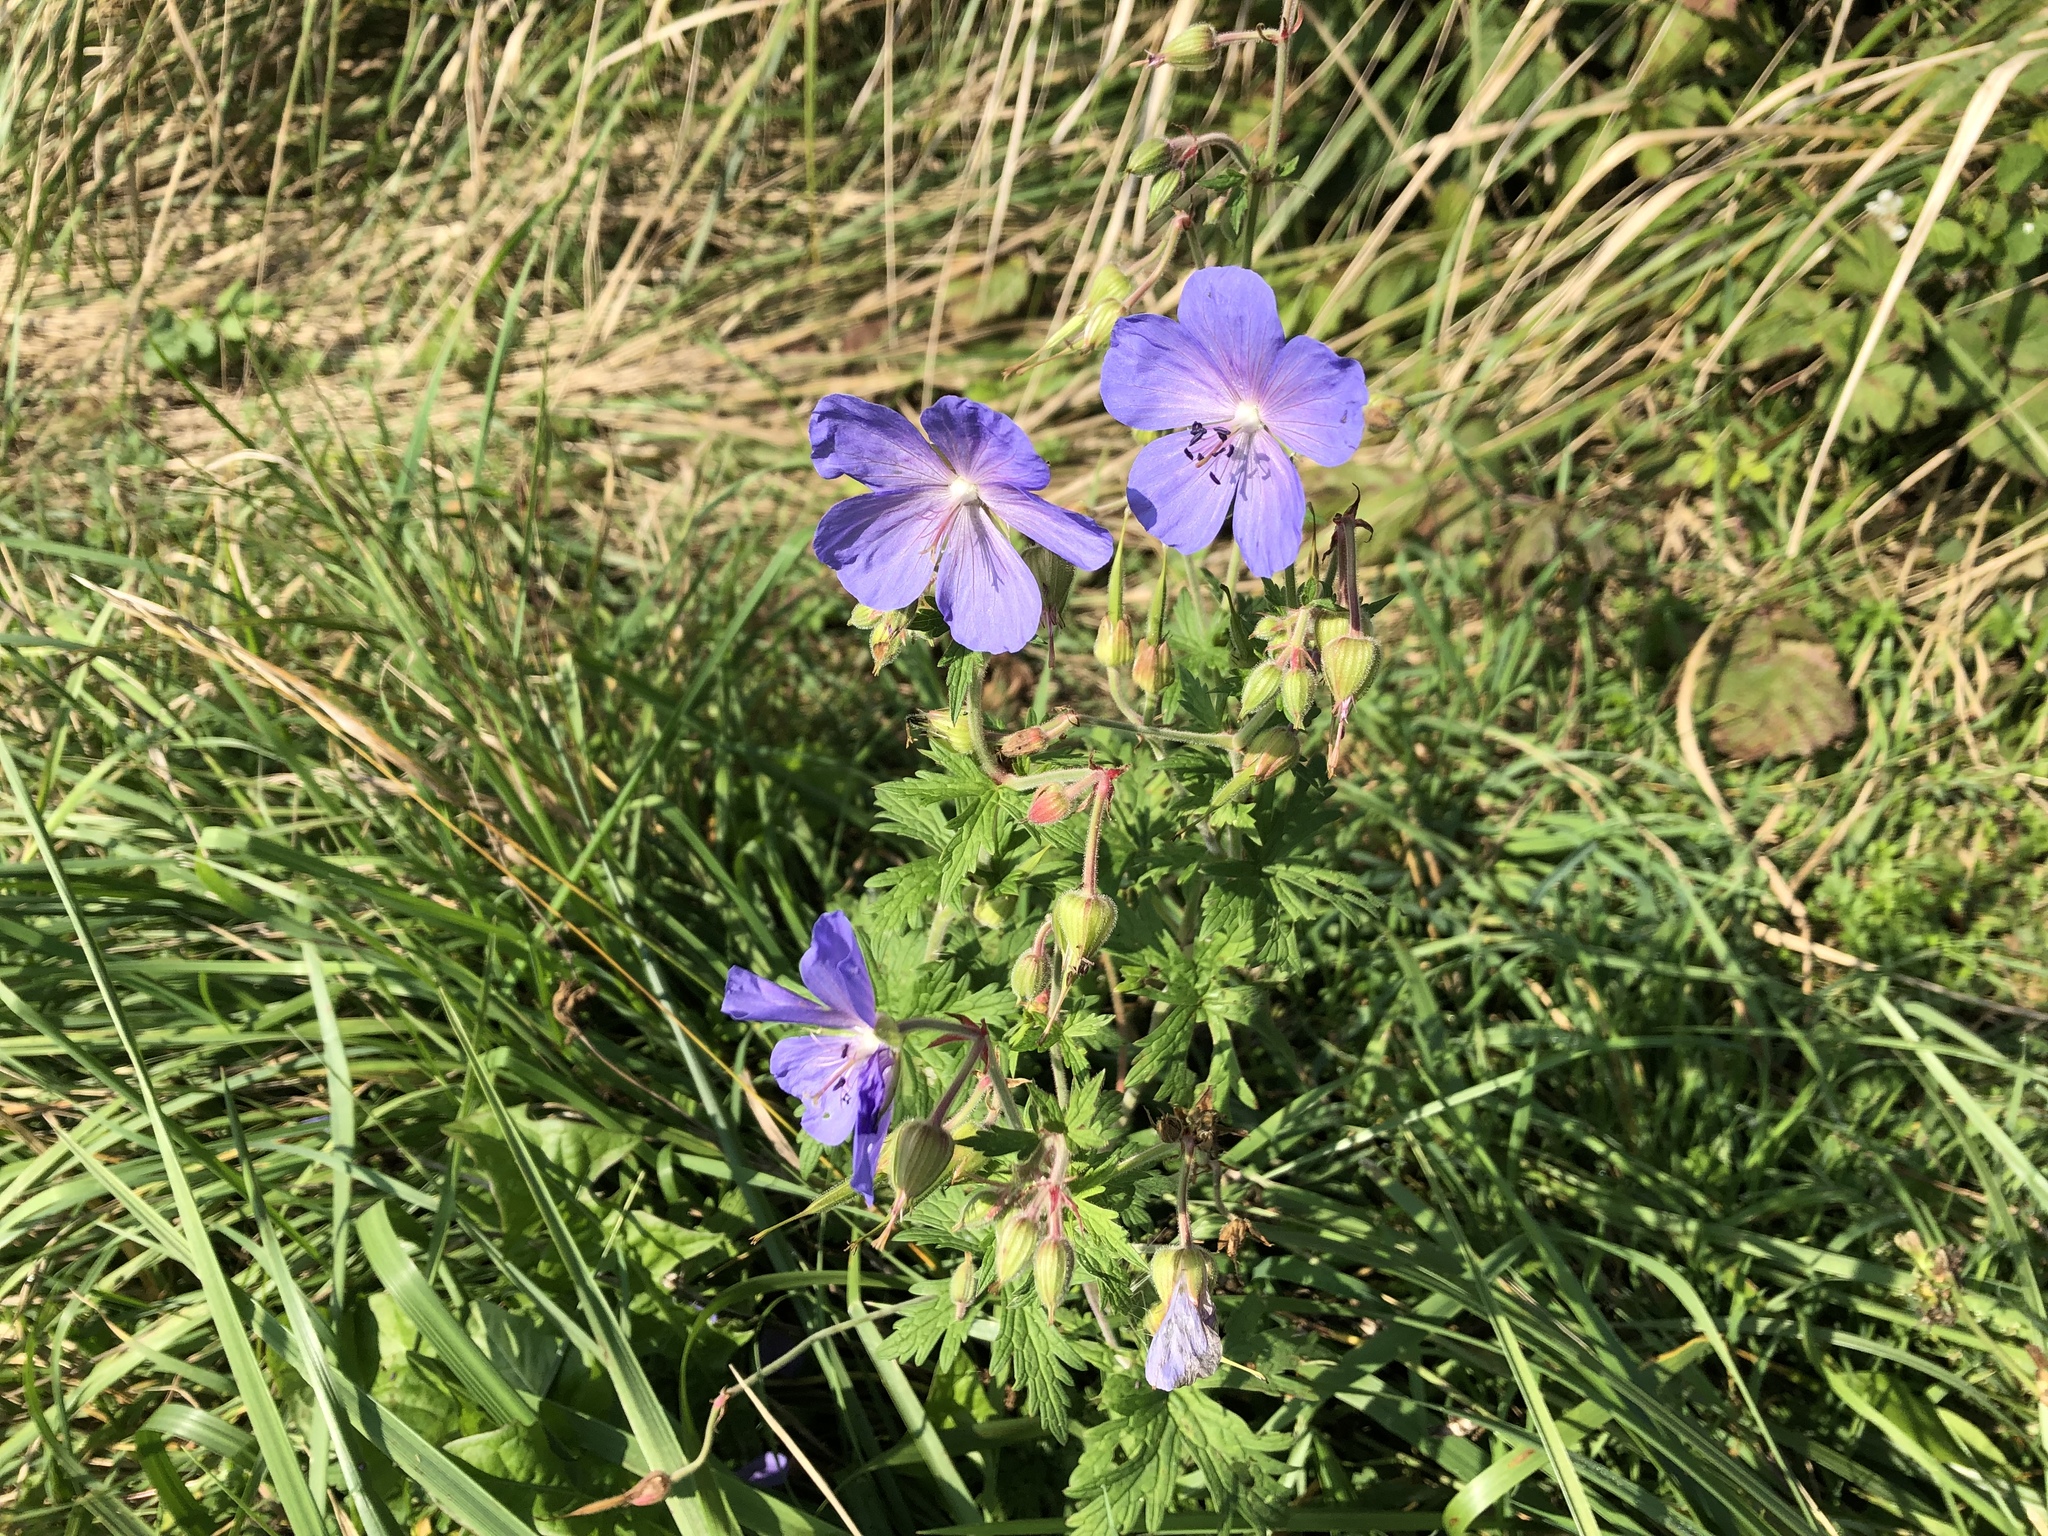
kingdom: Plantae
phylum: Tracheophyta
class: Magnoliopsida
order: Geraniales
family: Geraniaceae
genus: Geranium
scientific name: Geranium pratense
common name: Meadow crane's-bill
